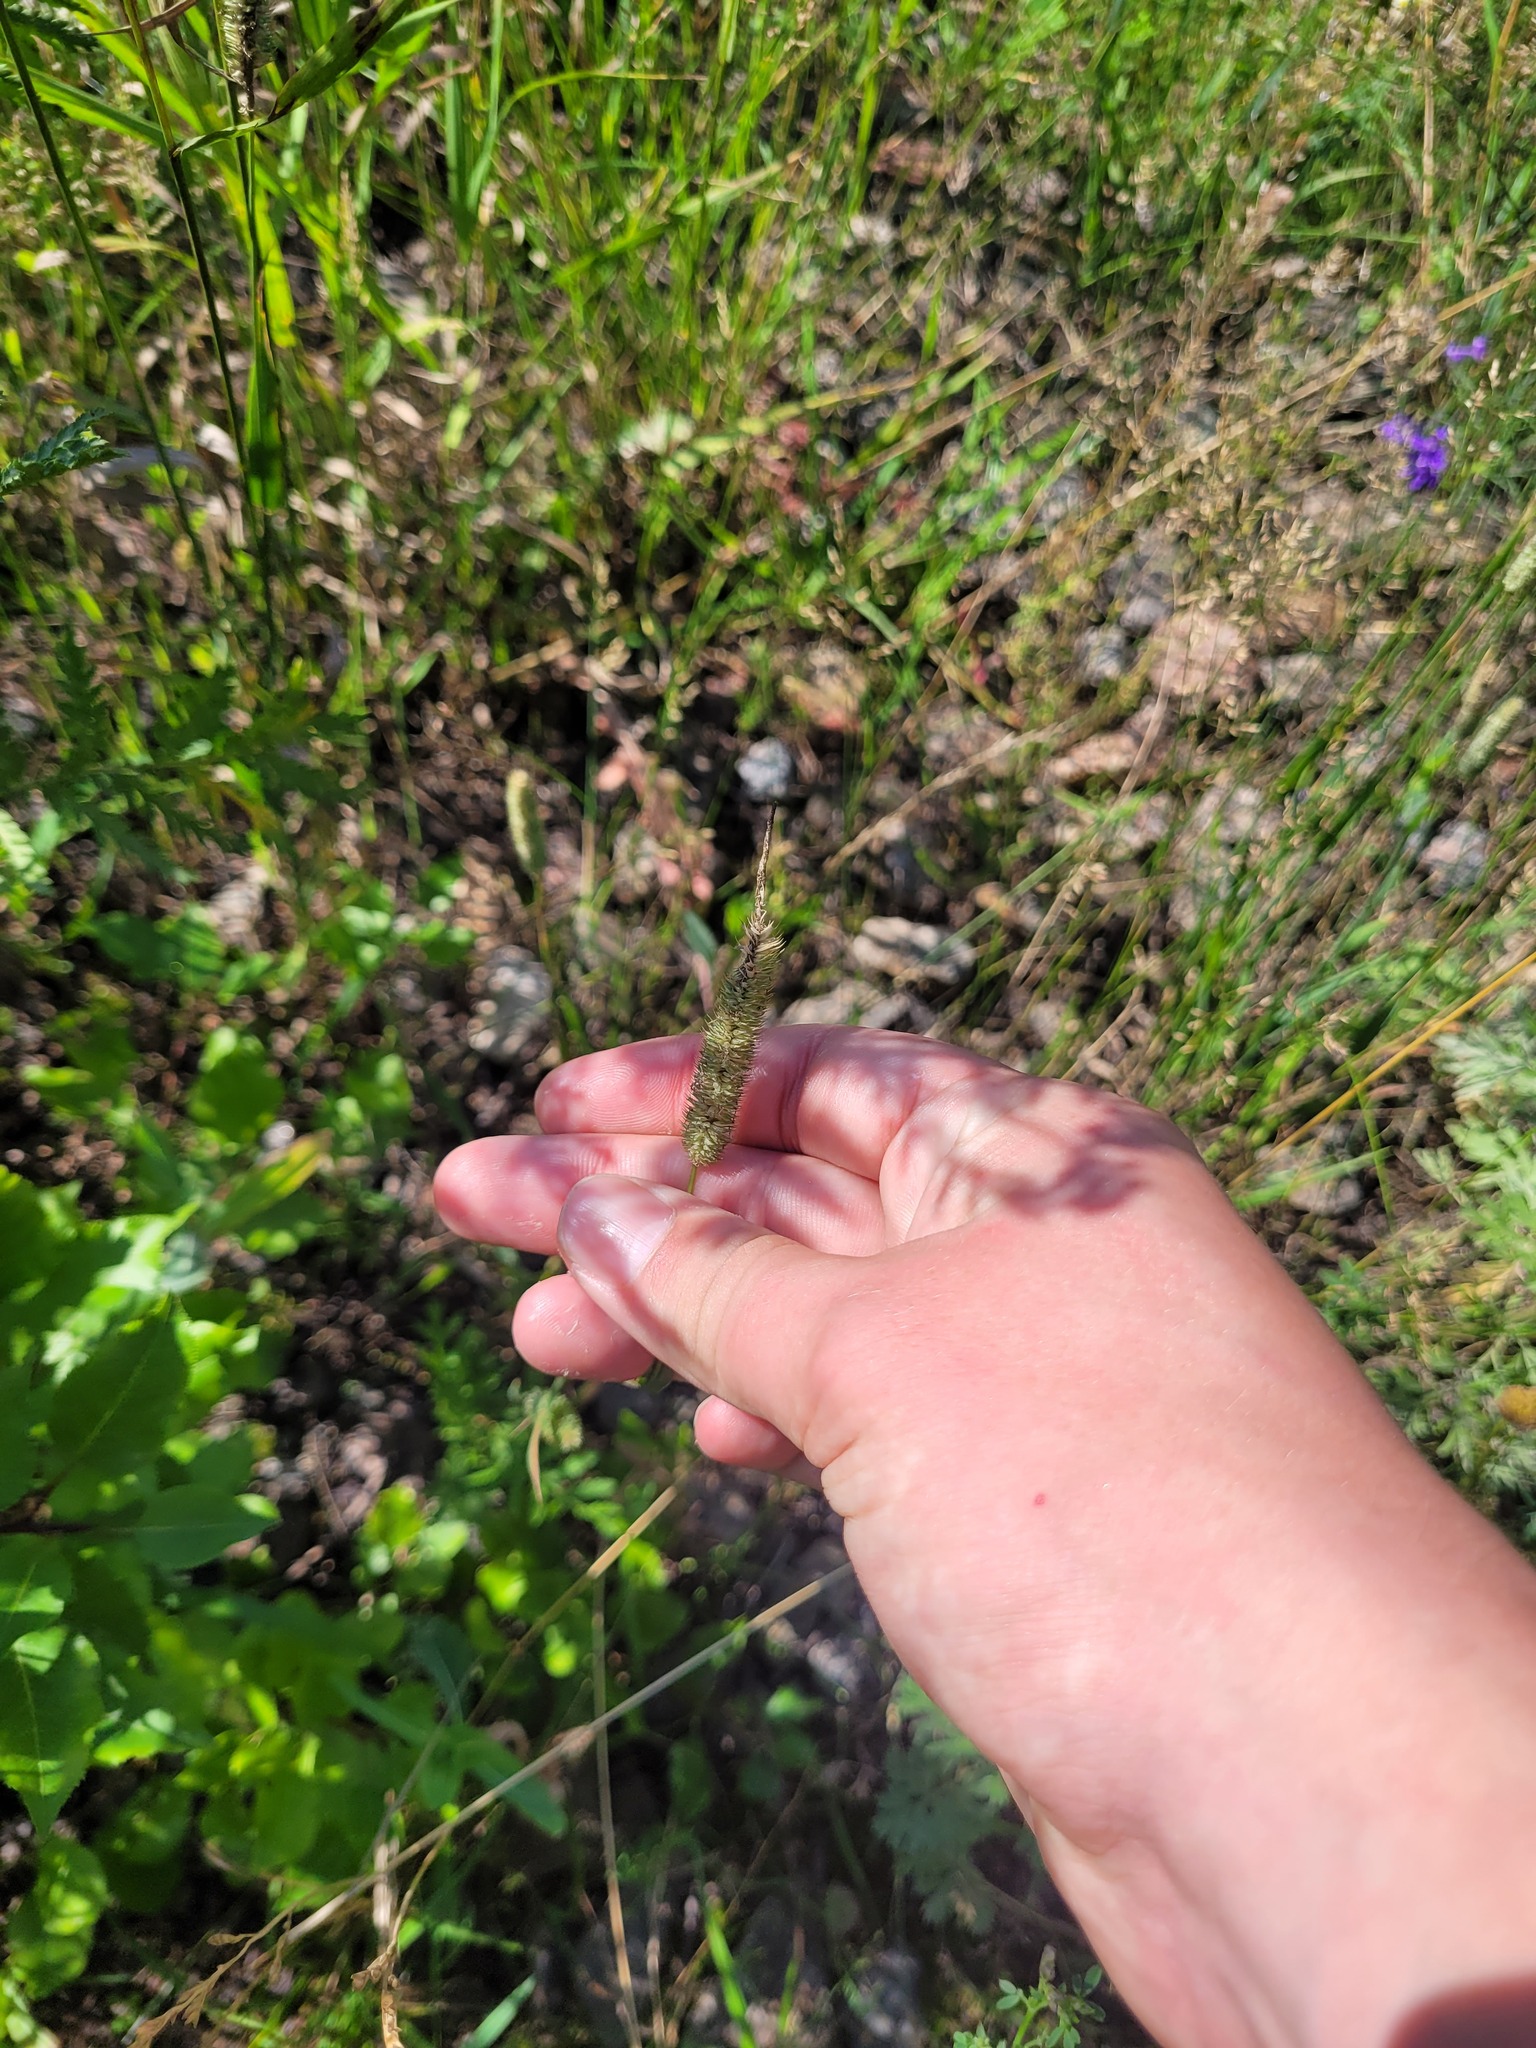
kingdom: Plantae
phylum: Tracheophyta
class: Liliopsida
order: Poales
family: Poaceae
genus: Phleum
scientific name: Phleum pratense
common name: Timothy grass
